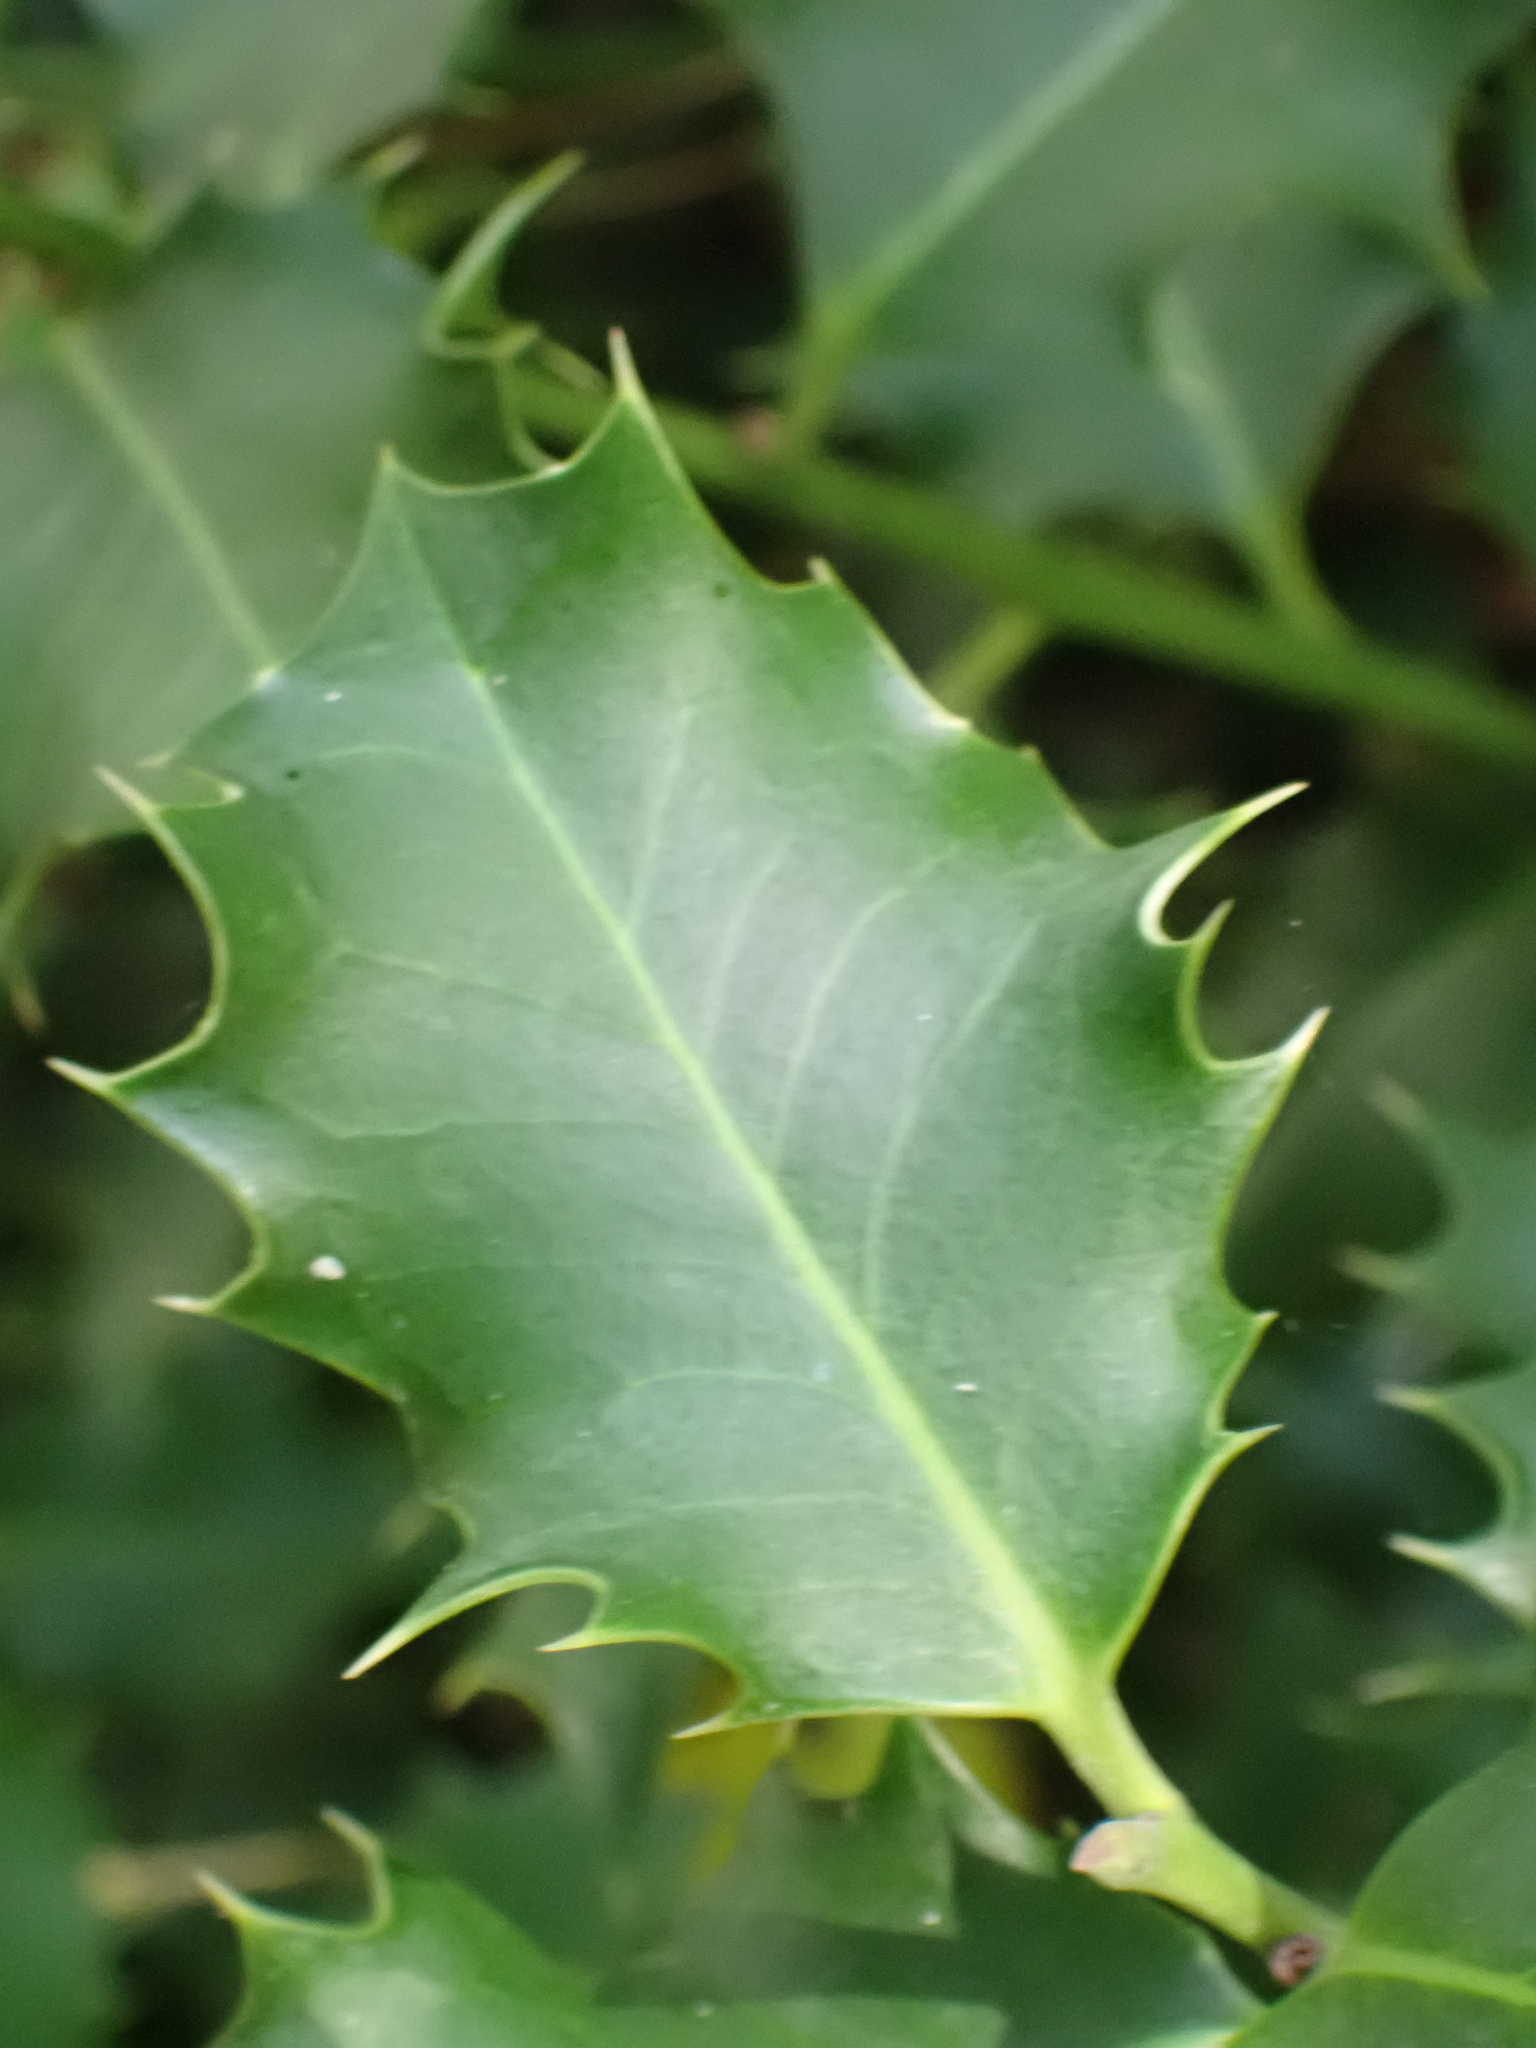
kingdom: Plantae
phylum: Tracheophyta
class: Magnoliopsida
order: Aquifoliales
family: Aquifoliaceae
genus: Ilex
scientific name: Ilex aquifolium
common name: English holly
